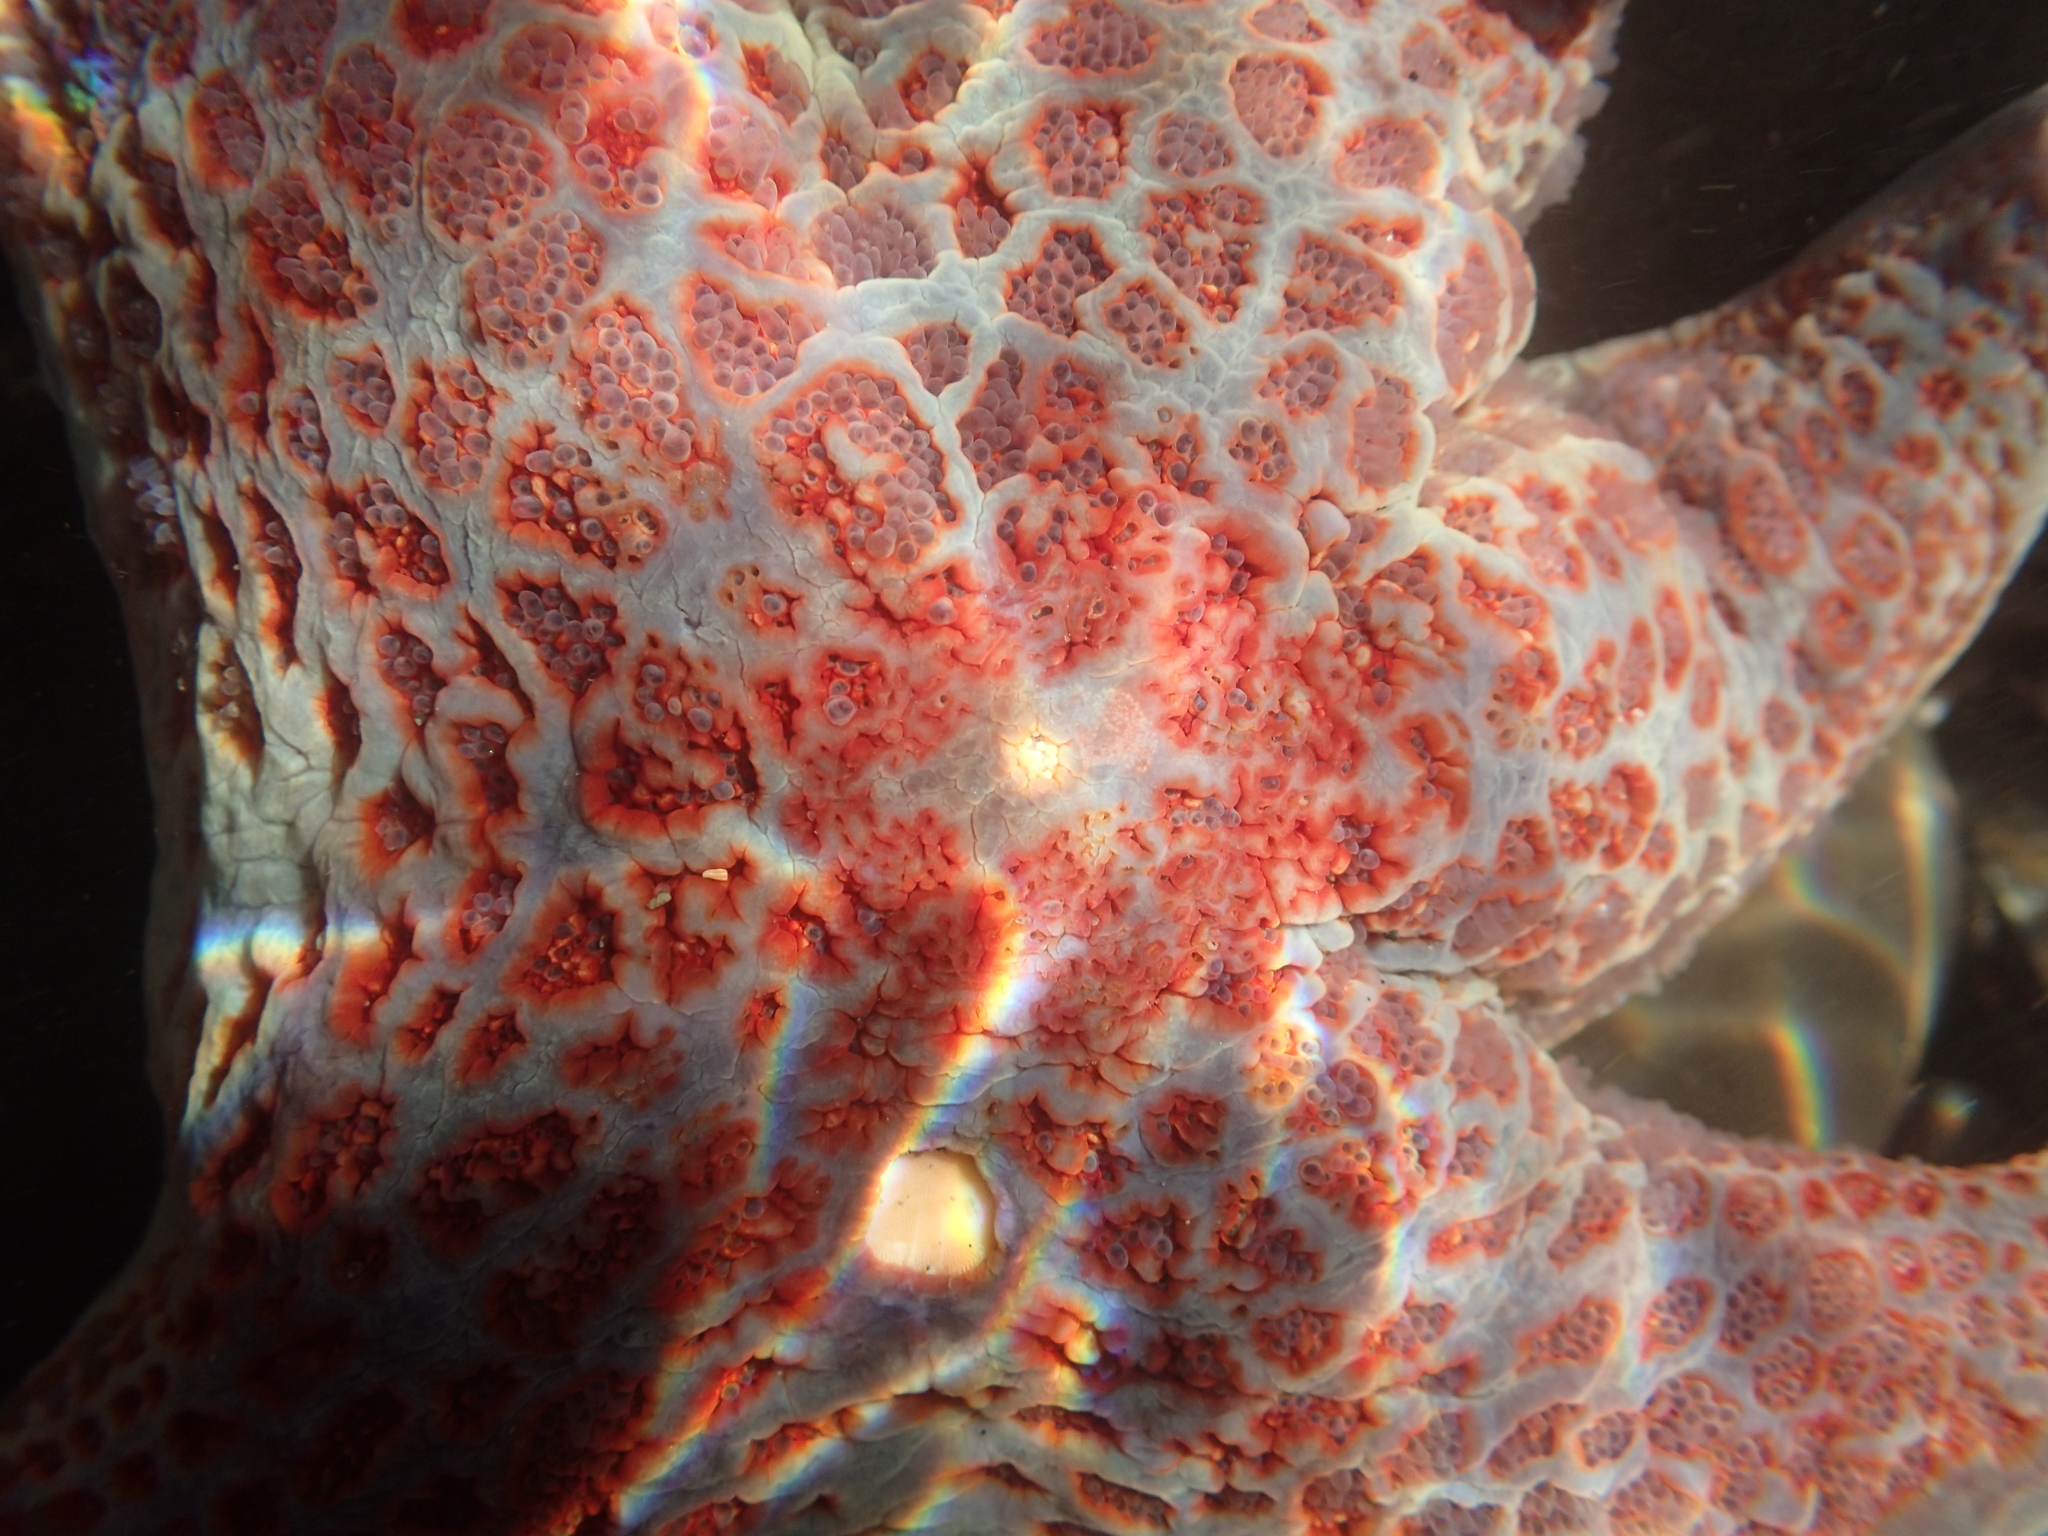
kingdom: Animalia
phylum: Echinodermata
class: Asteroidea
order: Valvatida
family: Asteropseidae
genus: Dermasterias
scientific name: Dermasterias imbricata
